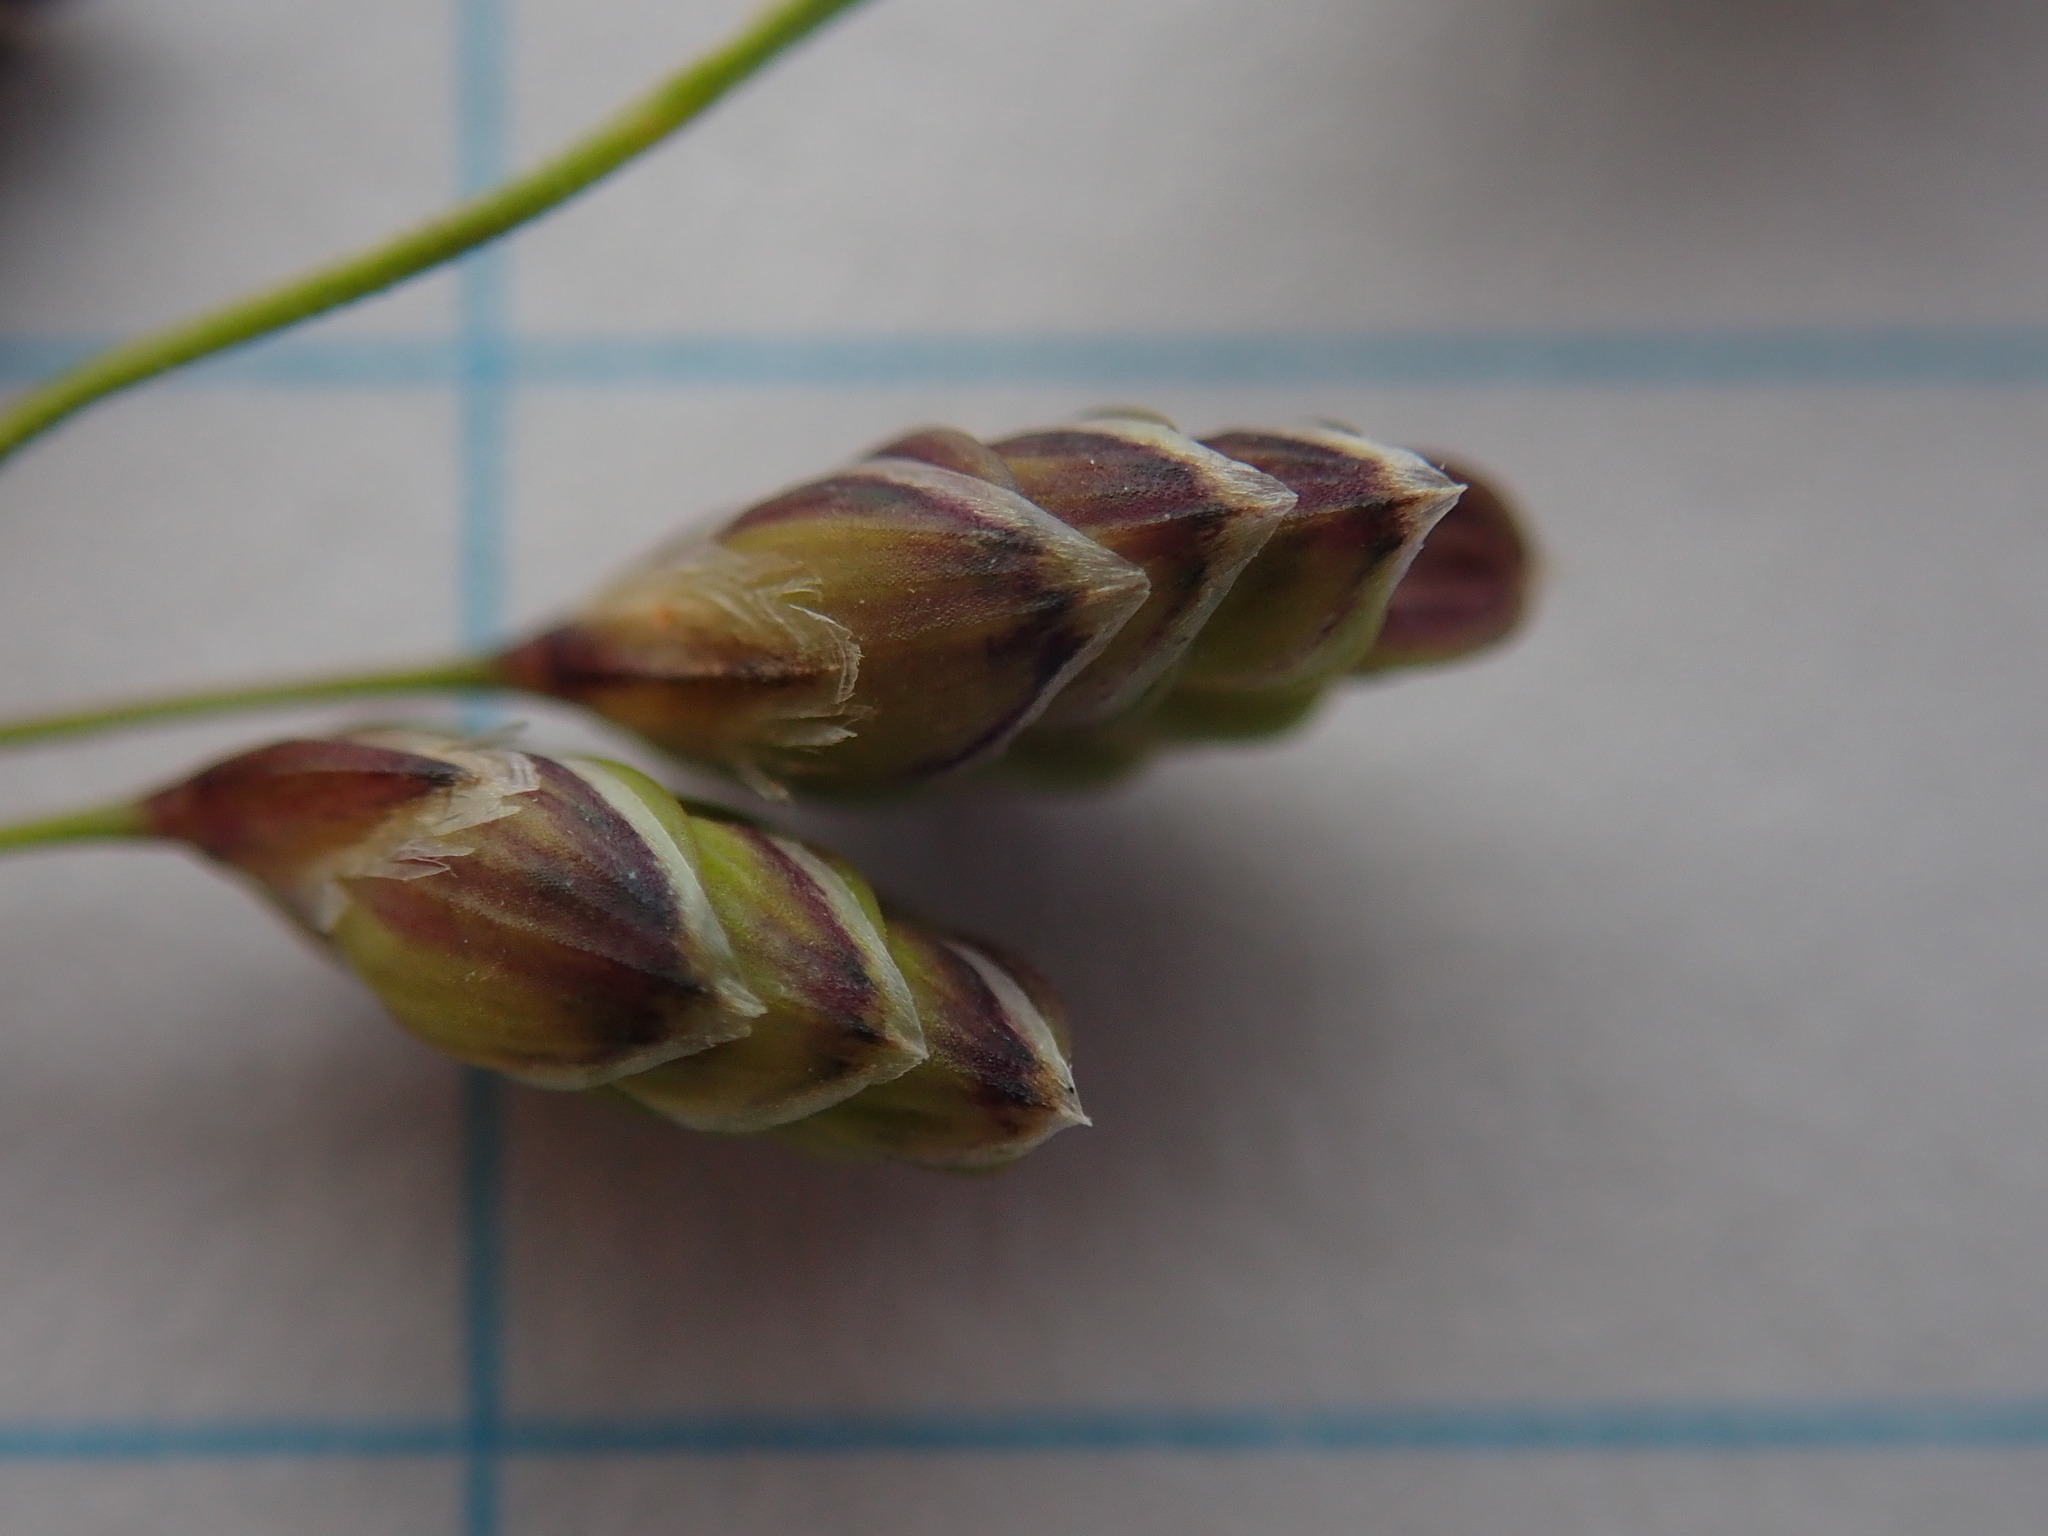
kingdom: Plantae
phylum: Tracheophyta
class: Liliopsida
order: Poales
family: Poaceae
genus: Glyceria
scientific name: Glyceria canadensis
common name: Canada mannagrass
